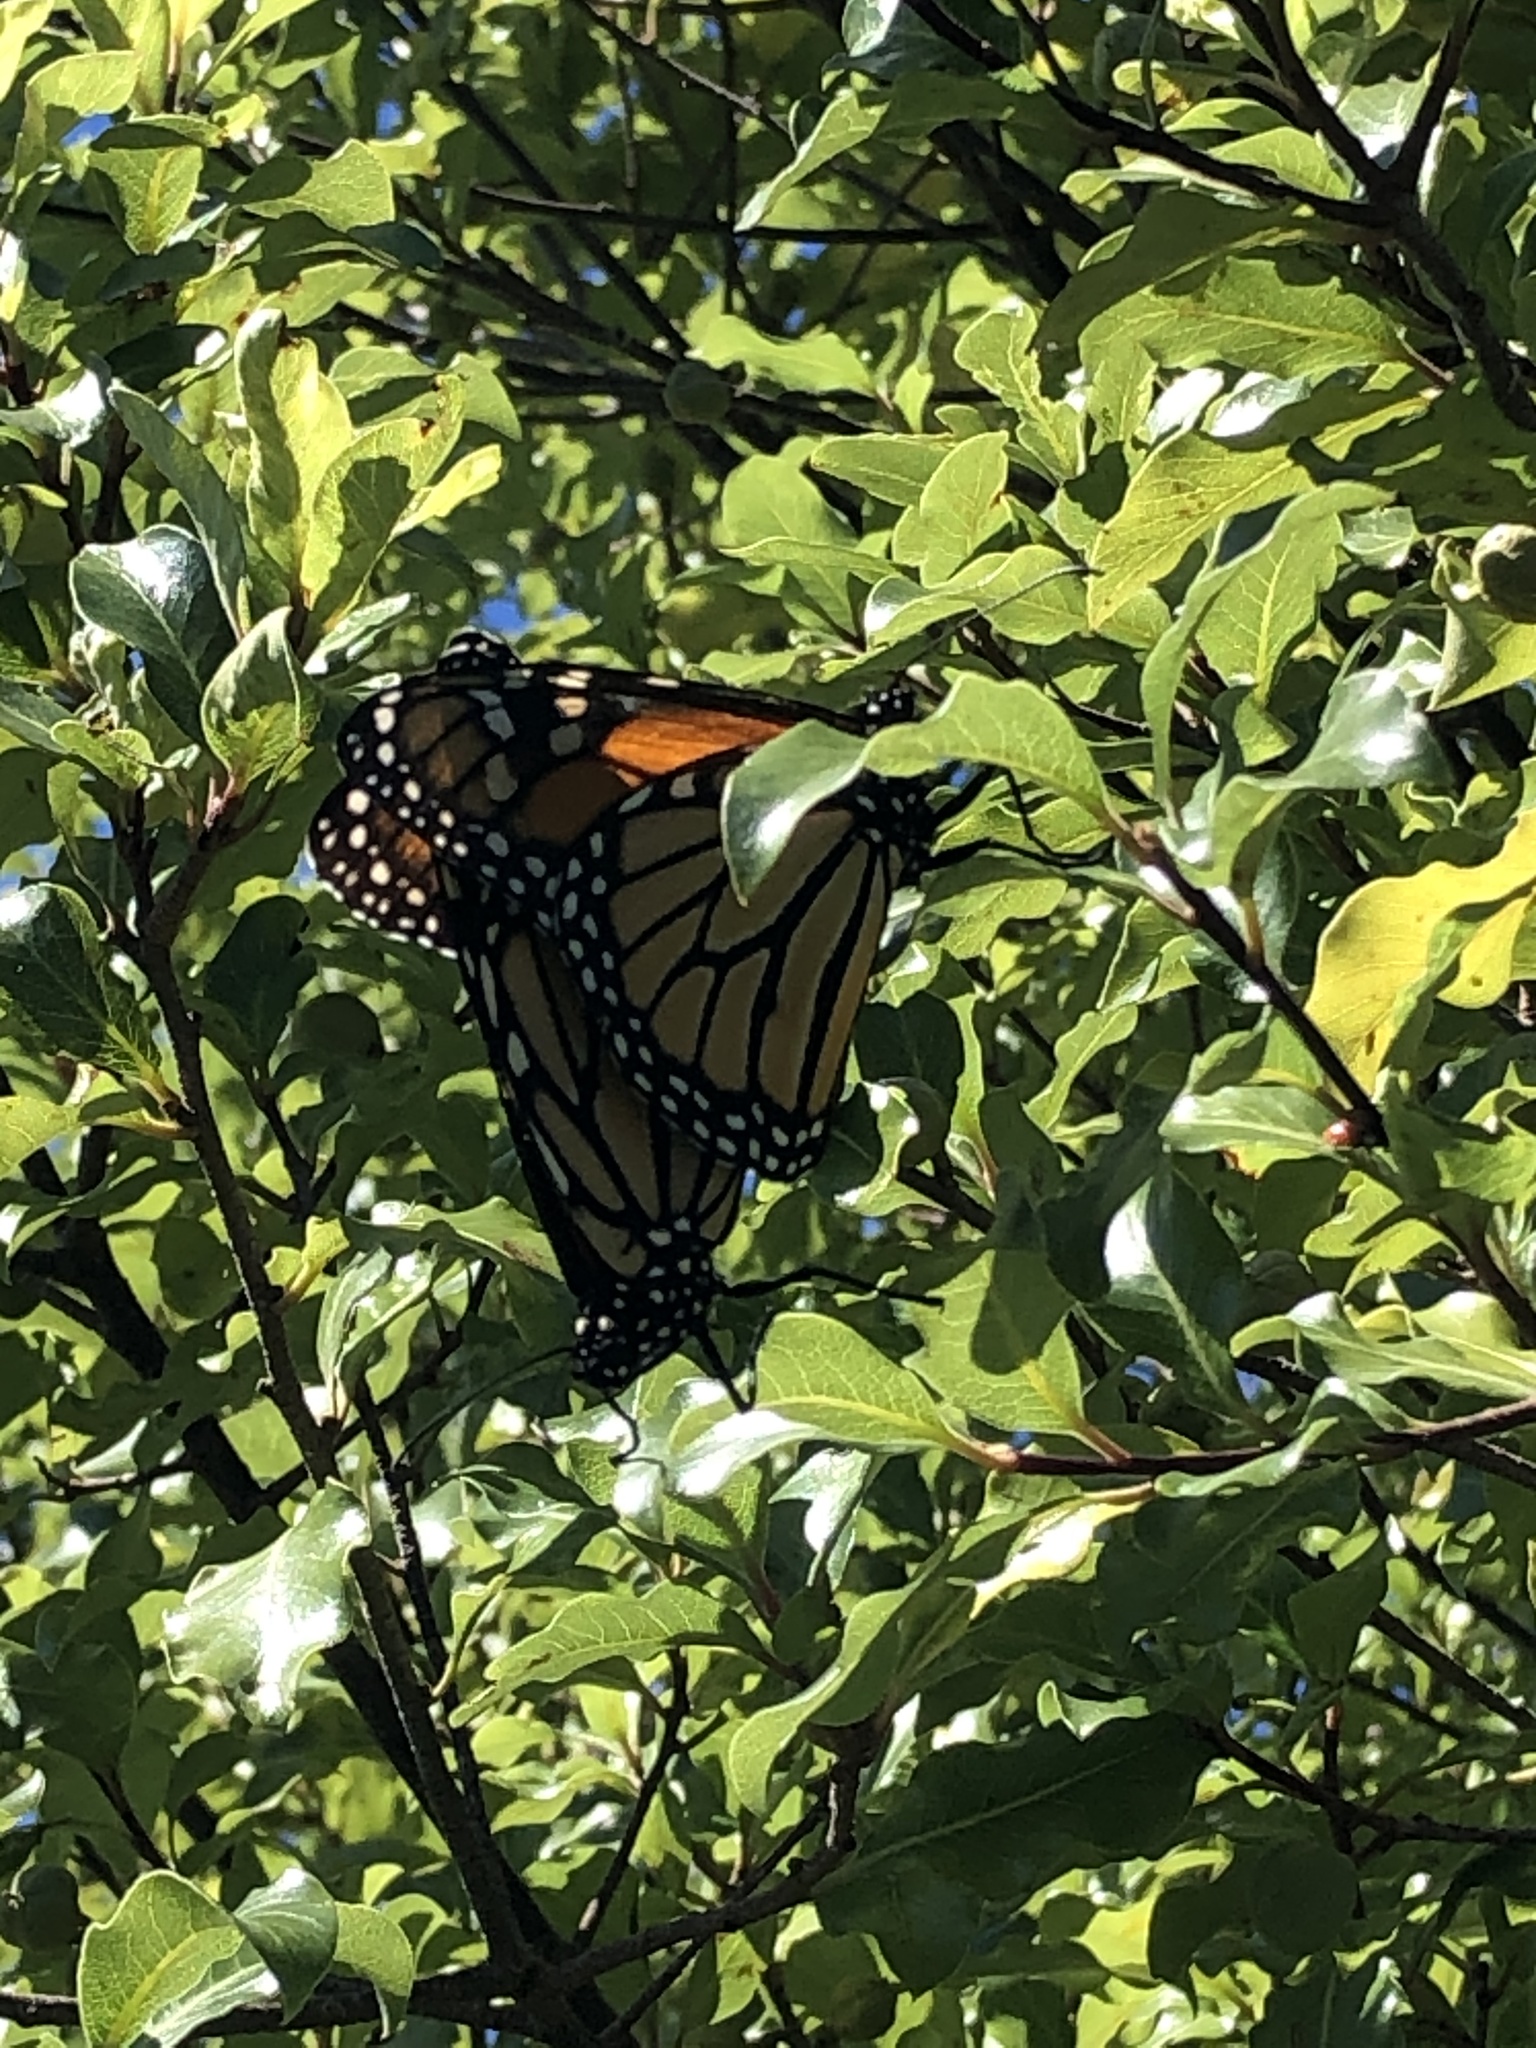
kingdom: Animalia
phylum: Arthropoda
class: Insecta
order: Lepidoptera
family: Nymphalidae
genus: Danaus
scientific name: Danaus plexippus
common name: Monarch
